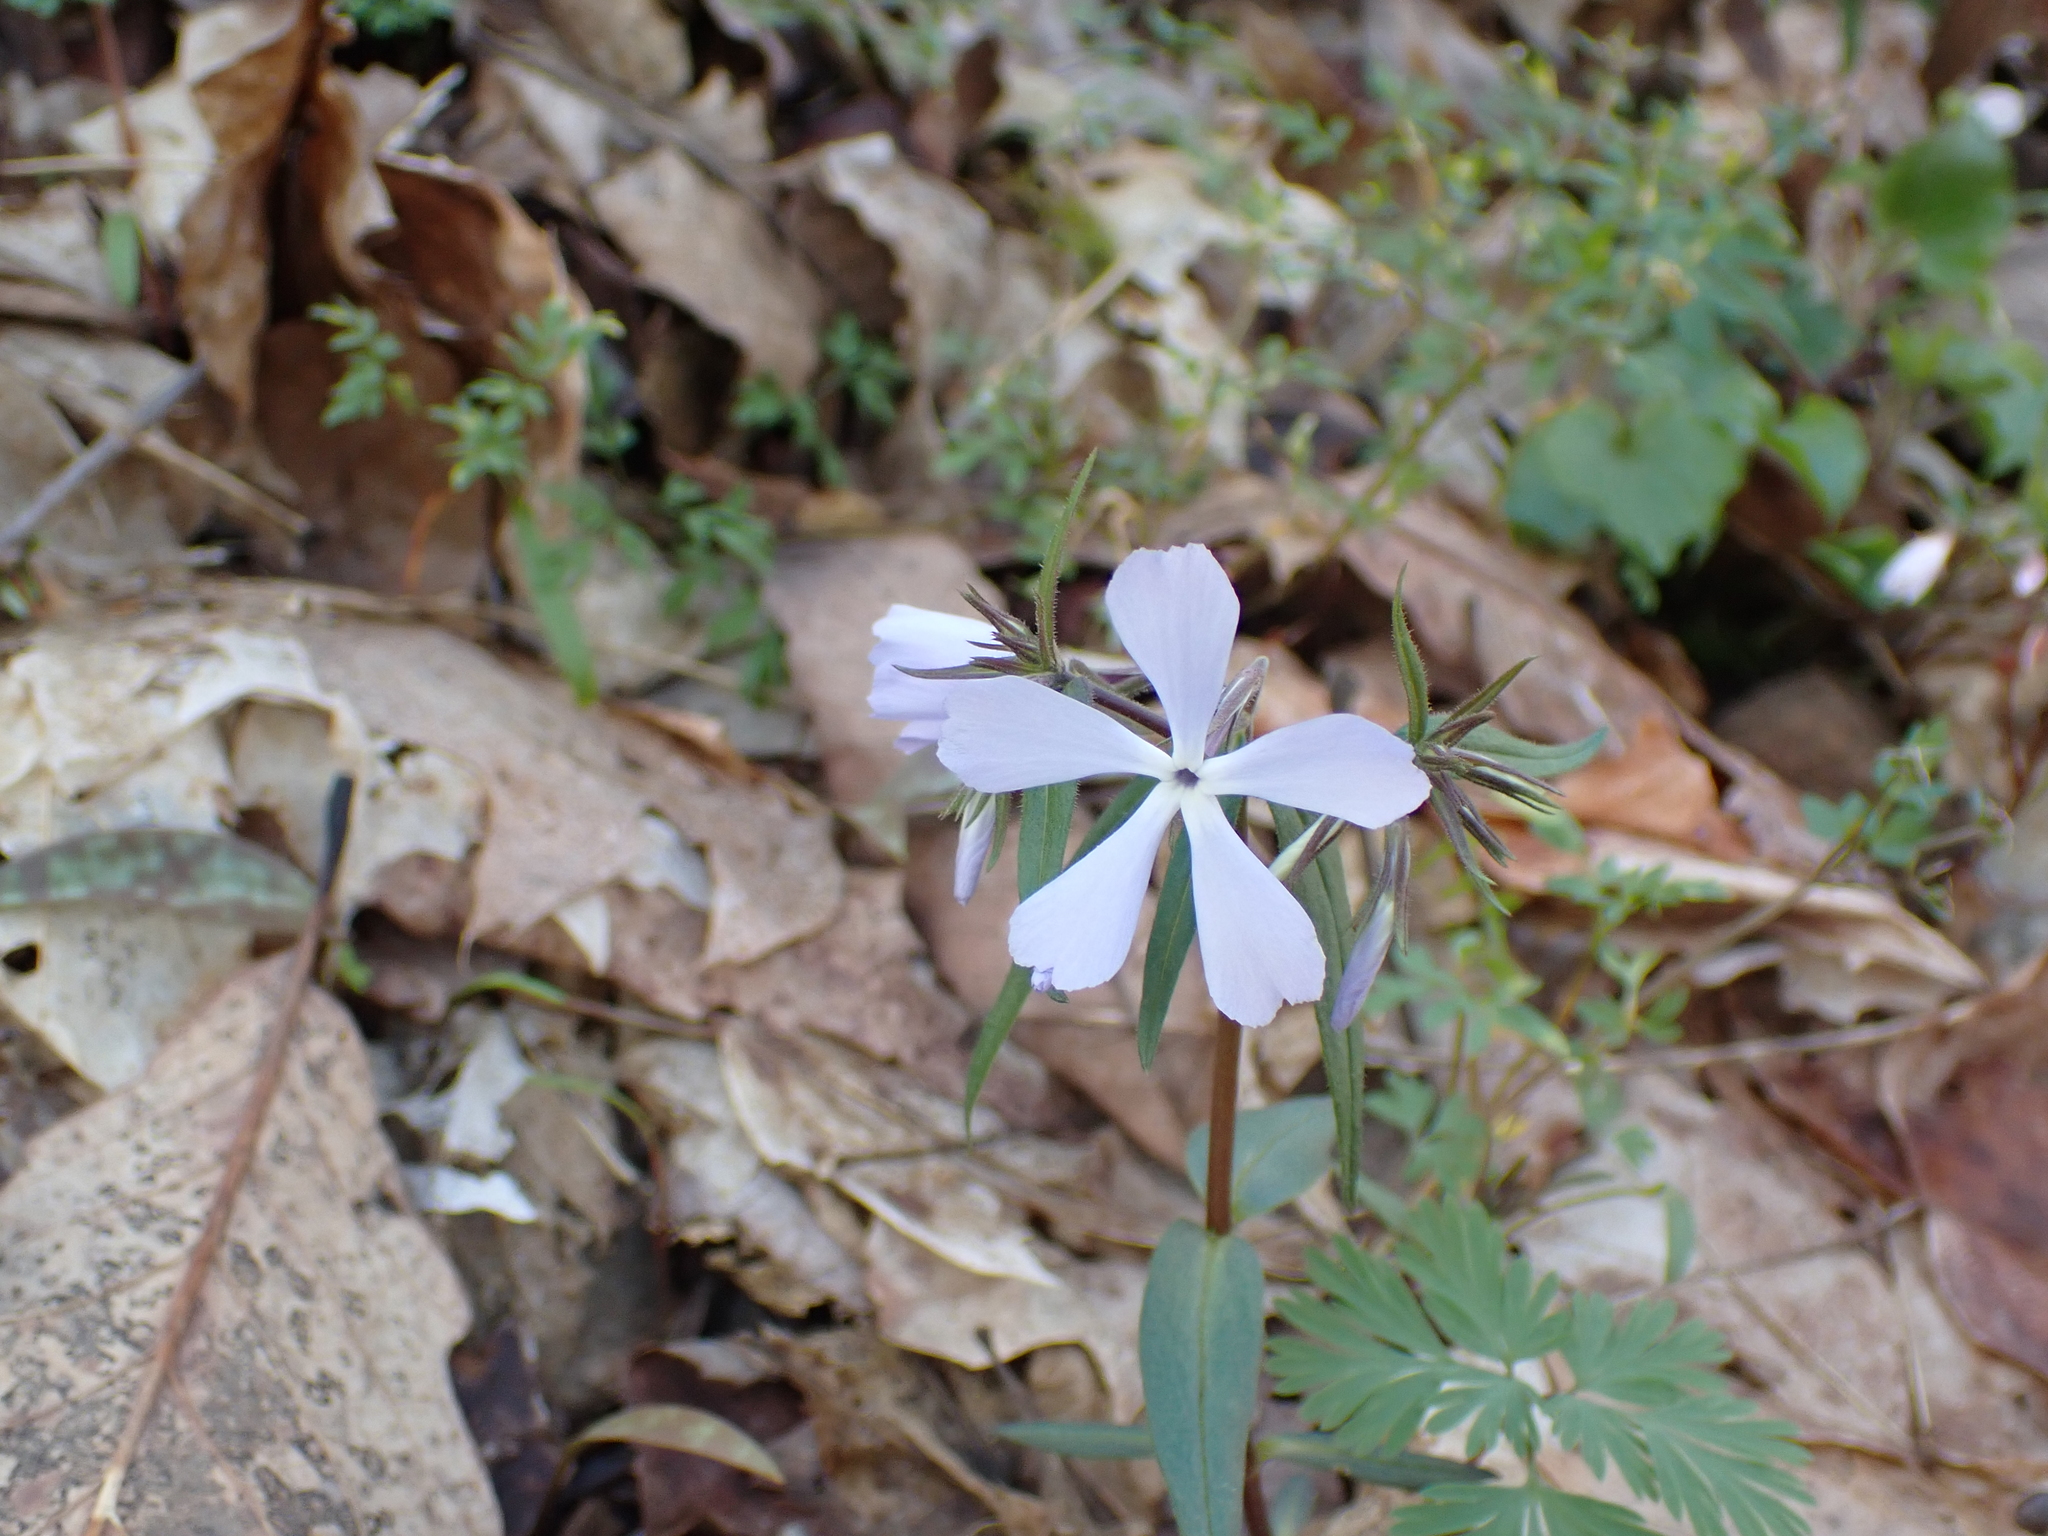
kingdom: Plantae
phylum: Tracheophyta
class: Magnoliopsida
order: Ericales
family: Polemoniaceae
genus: Phlox
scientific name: Phlox divaricata
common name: Blue phlox
